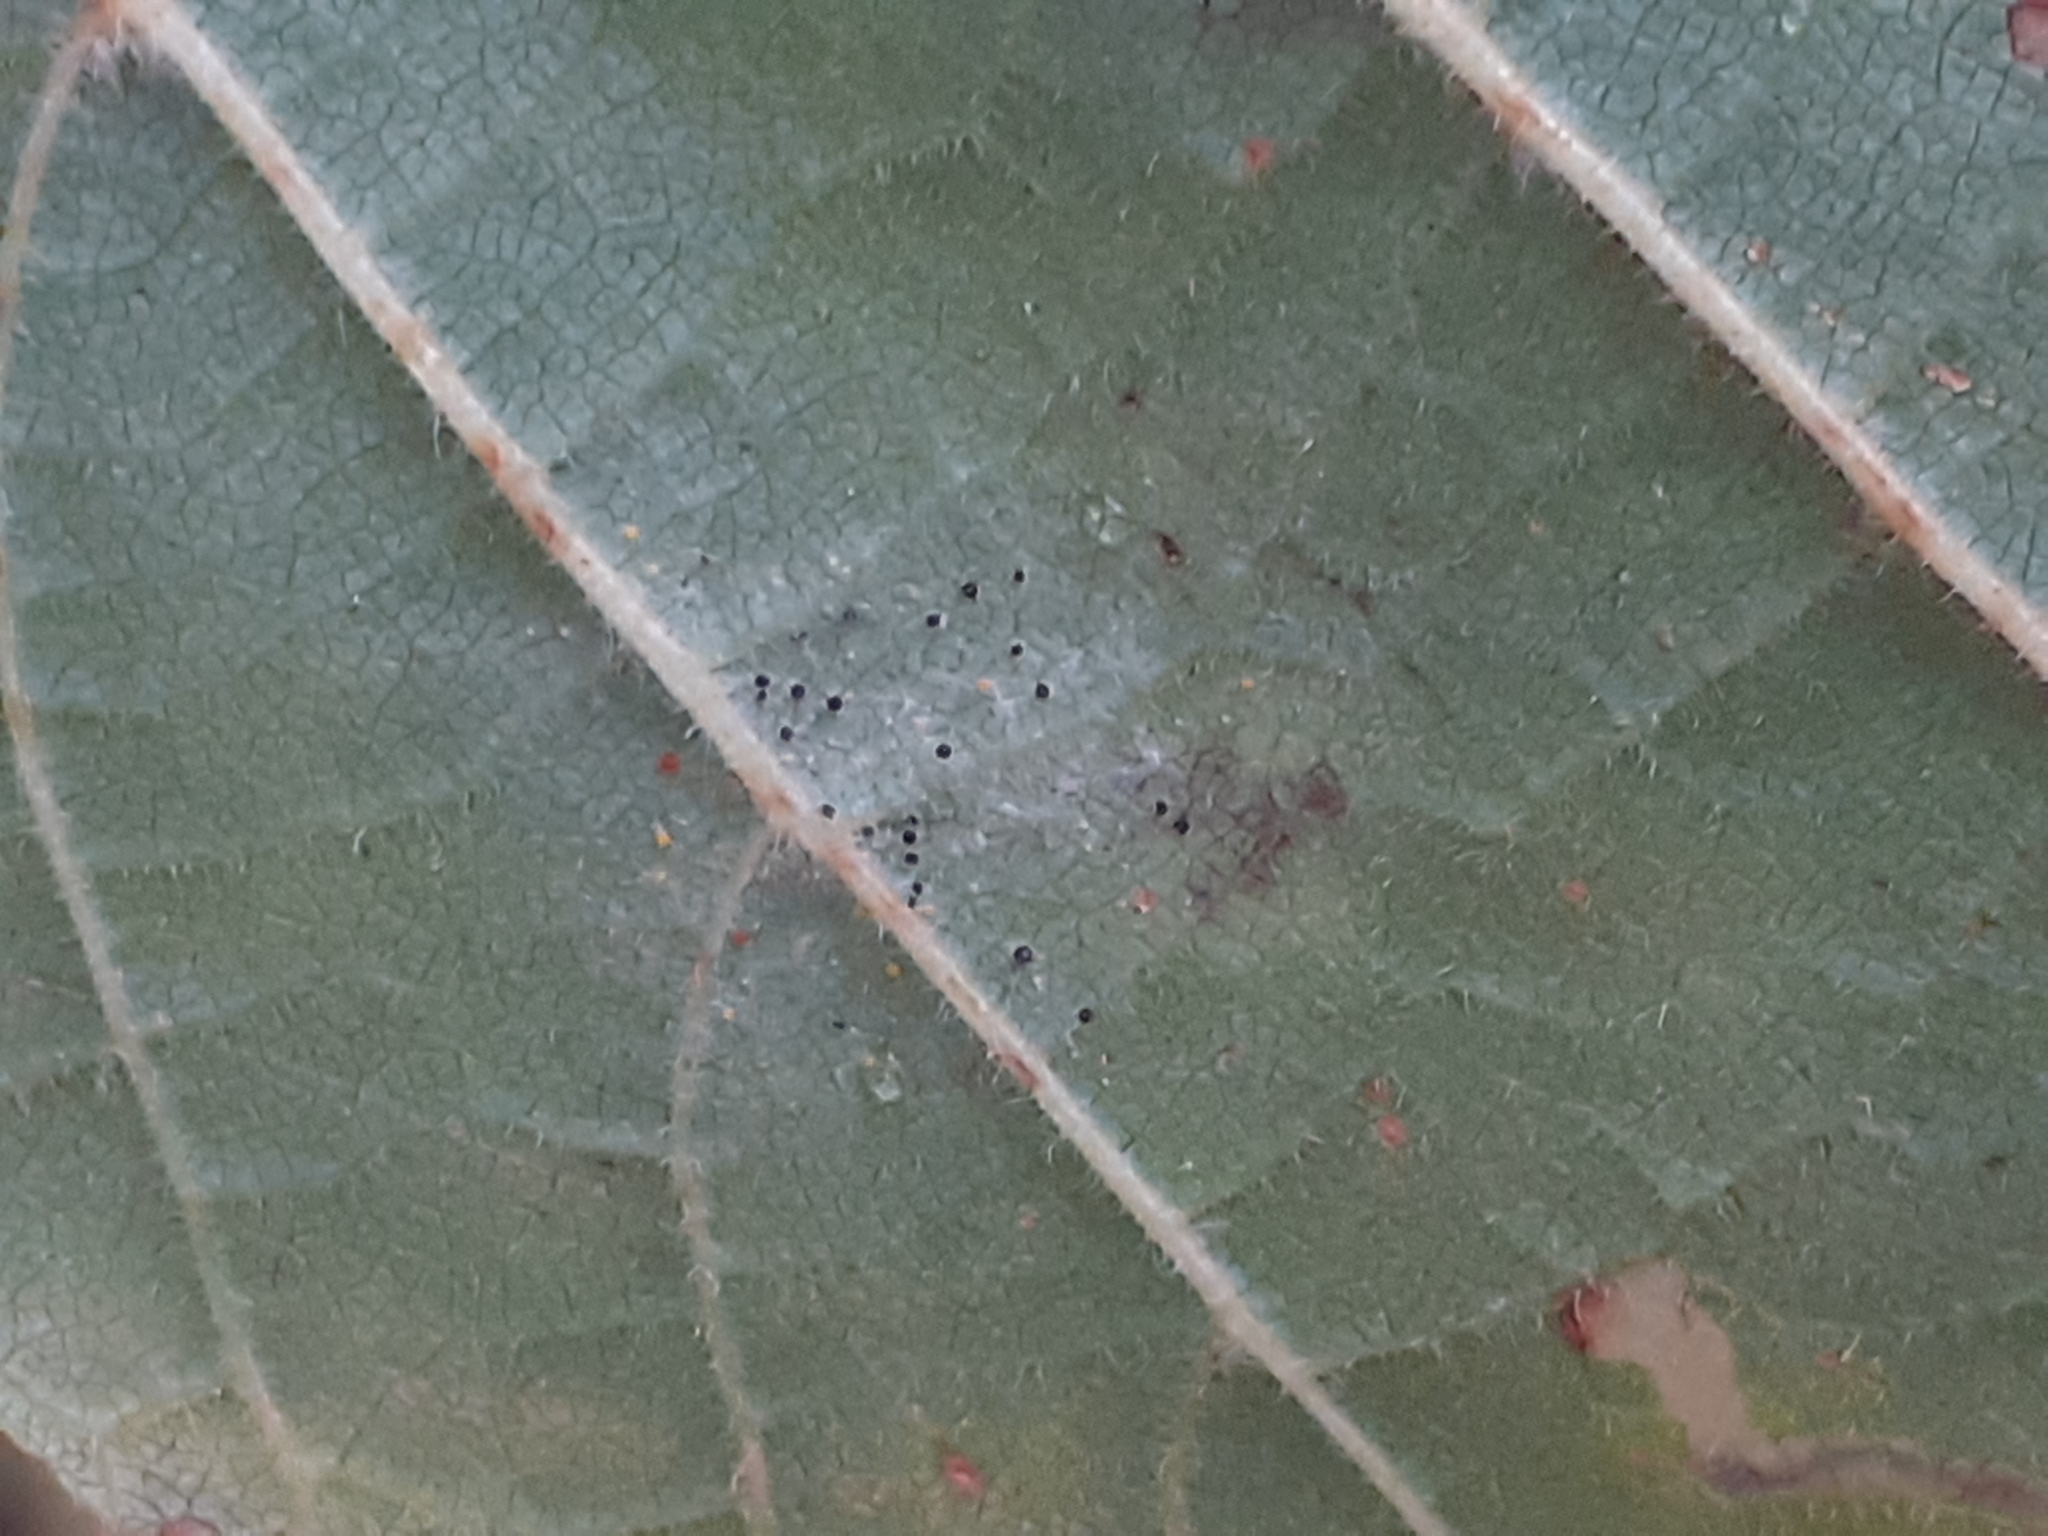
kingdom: Fungi
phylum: Ascomycota
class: Leotiomycetes
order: Helotiales
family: Erysiphaceae
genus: Phyllactinia
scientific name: Phyllactinia guttata
